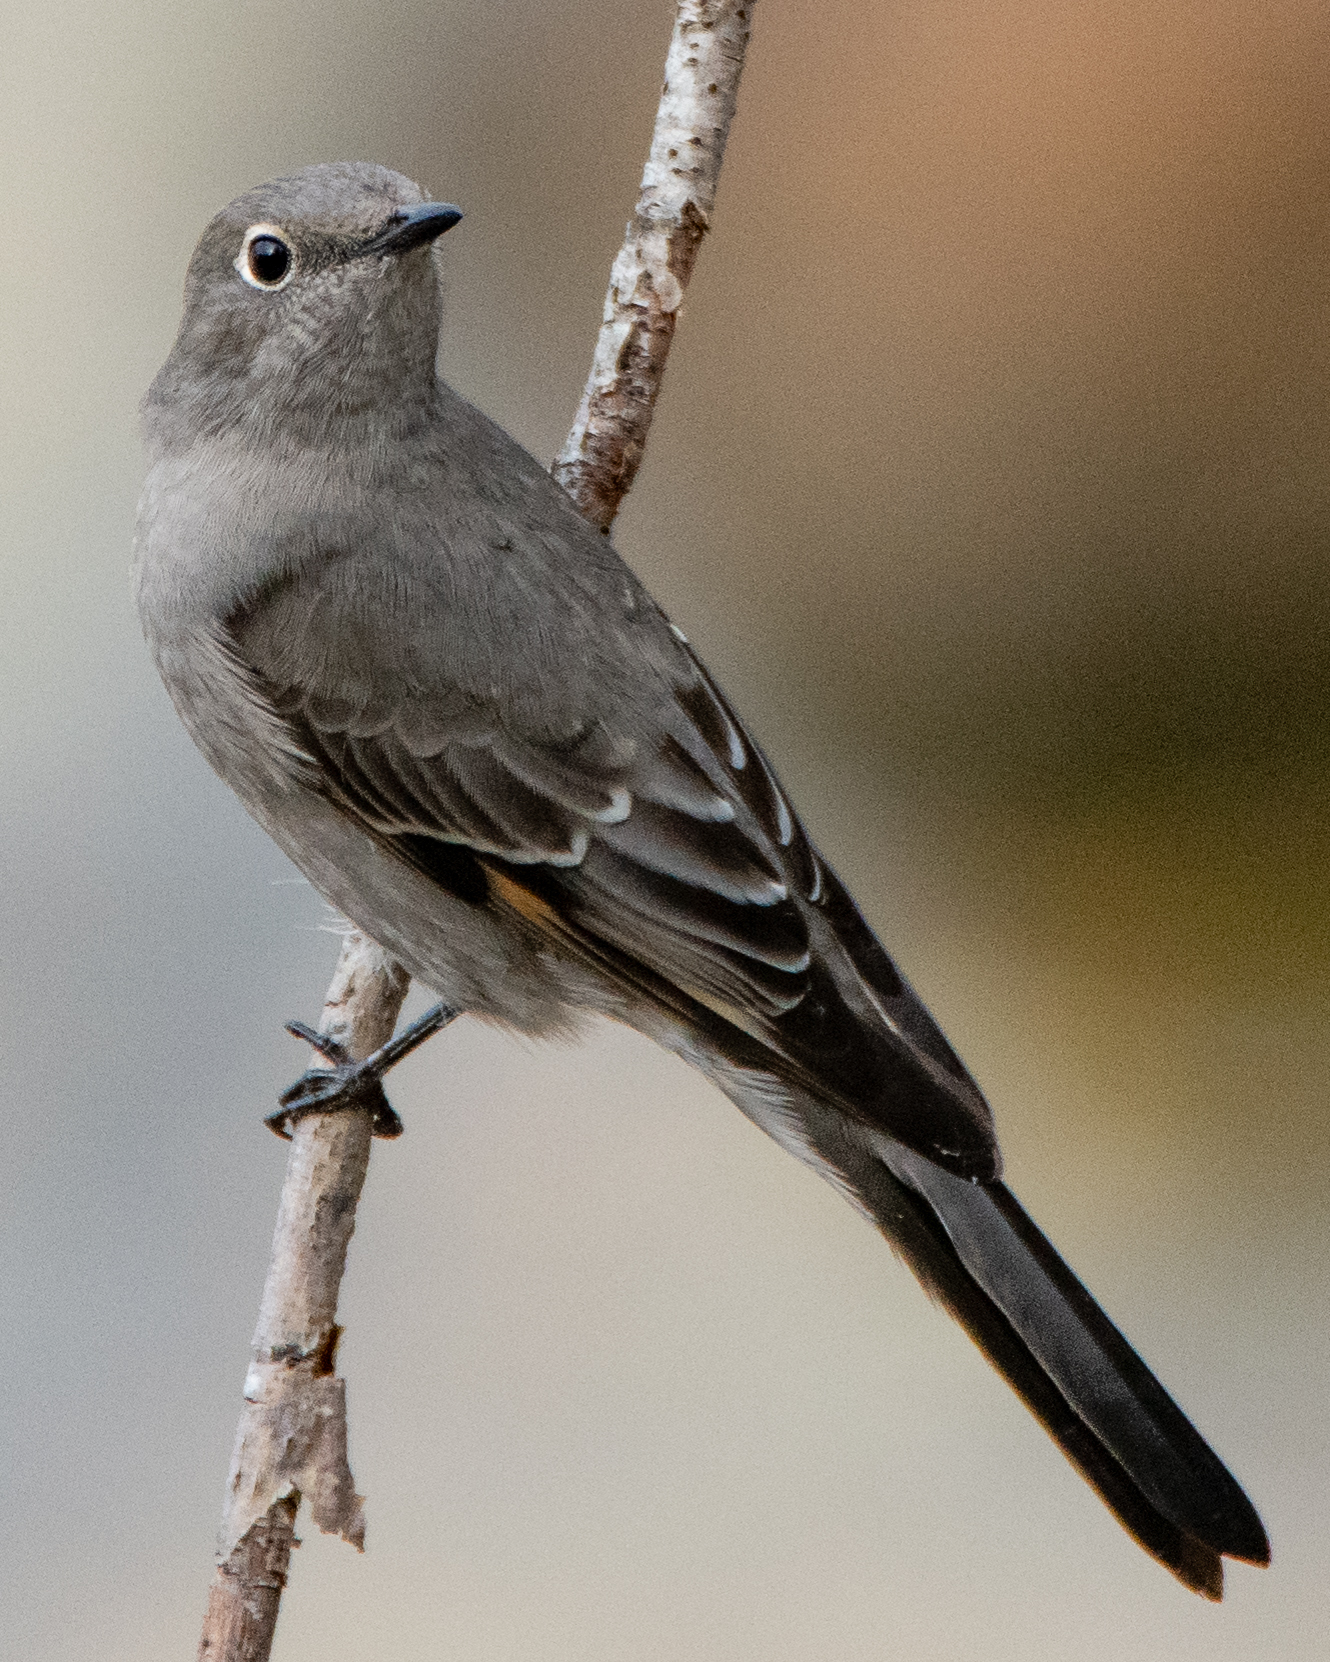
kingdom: Animalia
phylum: Chordata
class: Aves
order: Passeriformes
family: Turdidae
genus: Myadestes
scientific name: Myadestes townsendi
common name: Townsend's solitaire
